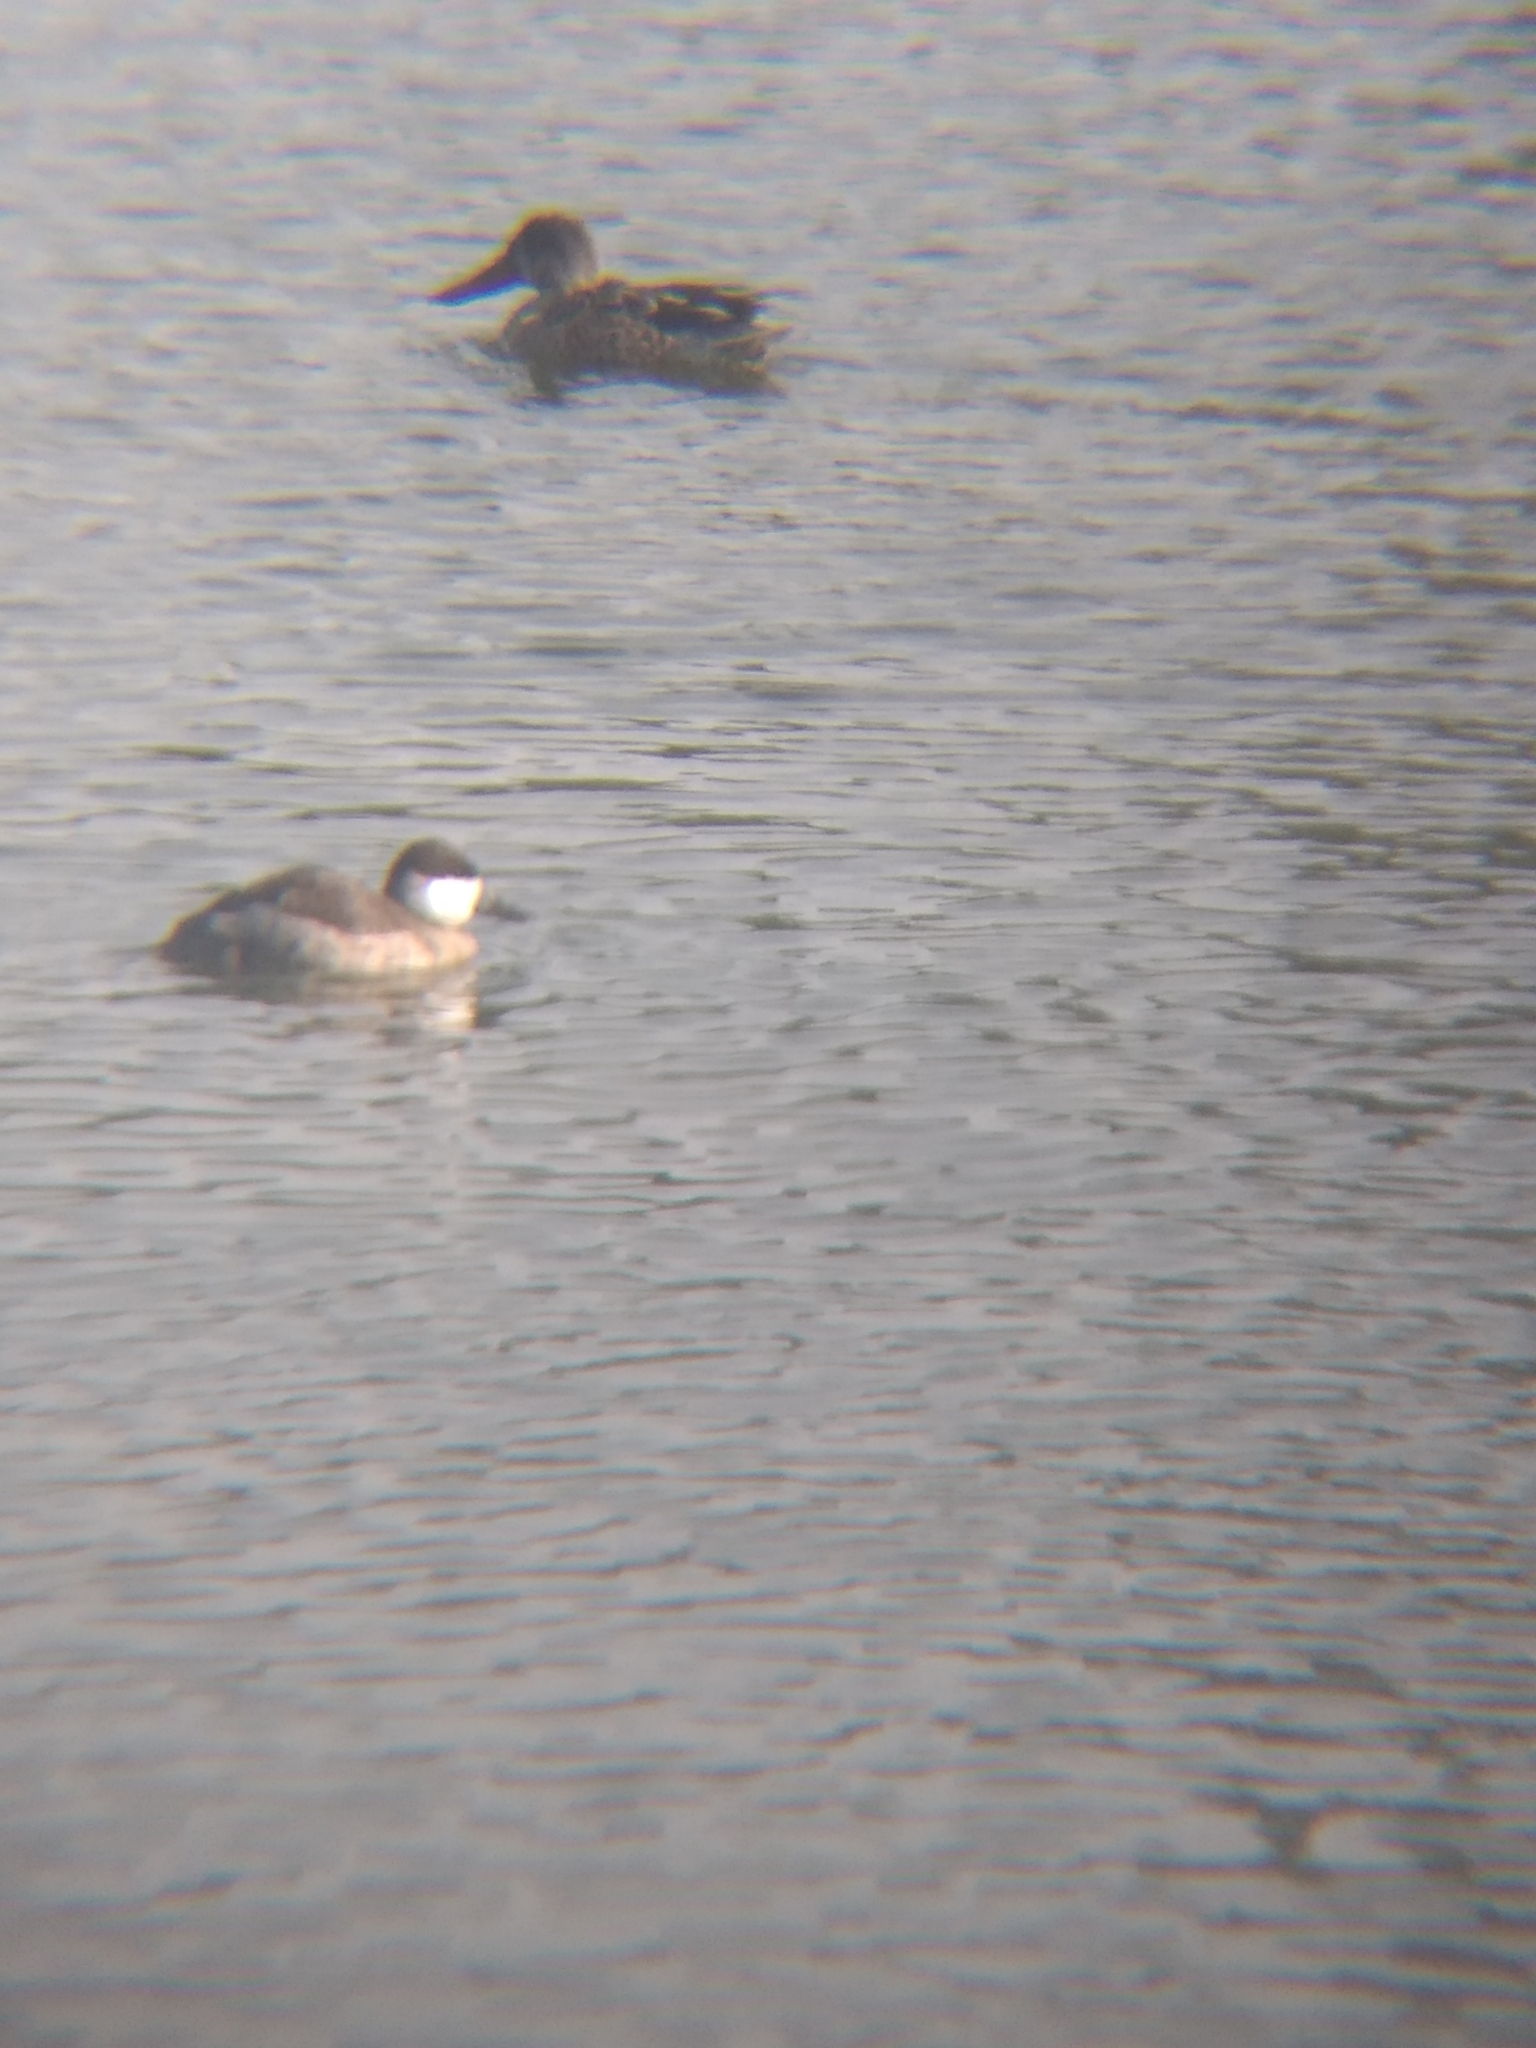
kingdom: Animalia
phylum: Chordata
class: Aves
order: Anseriformes
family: Anatidae
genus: Oxyura
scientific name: Oxyura jamaicensis
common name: Ruddy duck
